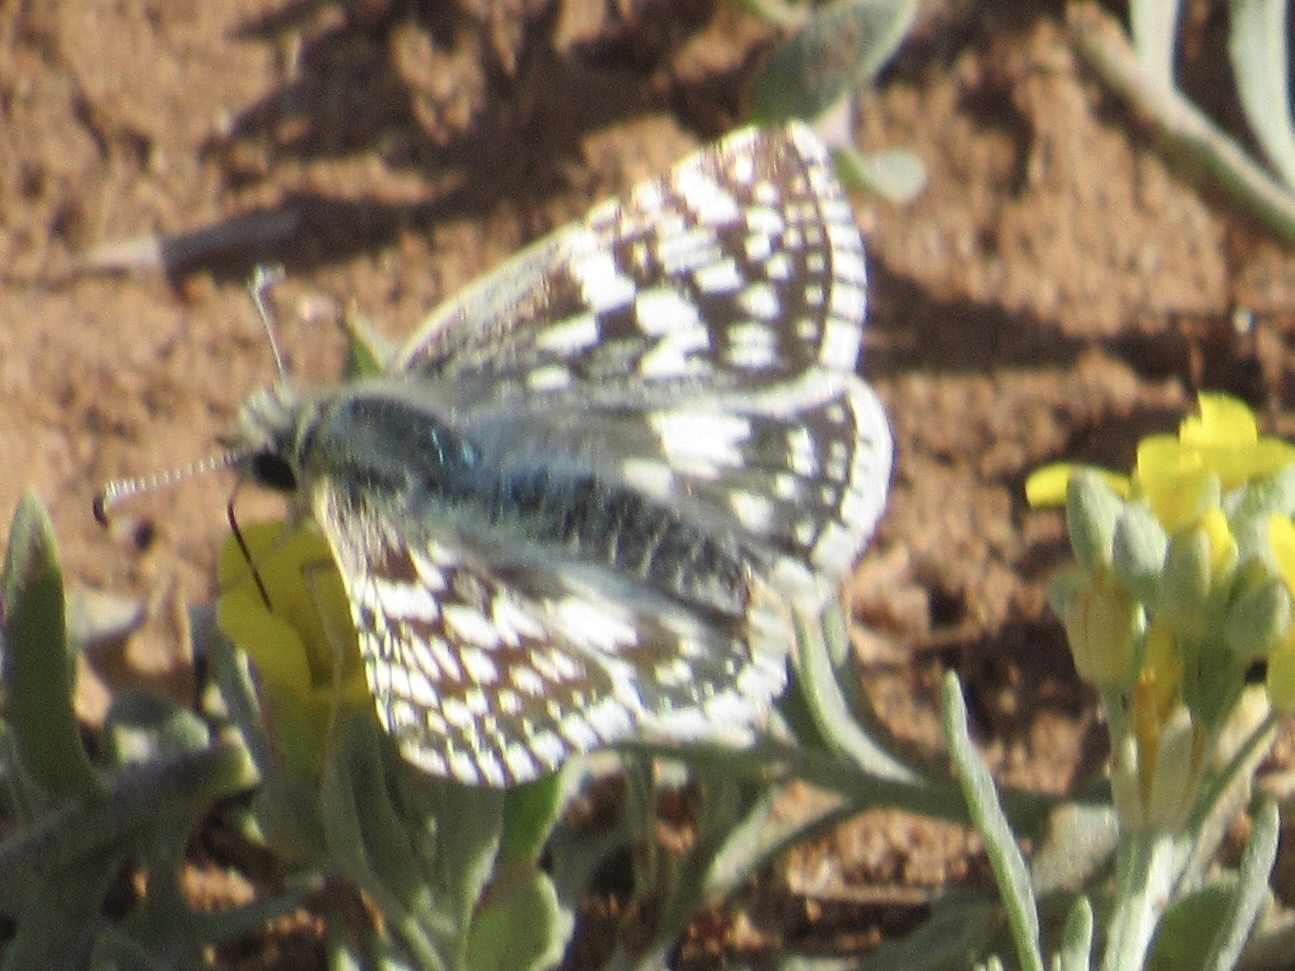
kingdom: Animalia
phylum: Arthropoda
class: Insecta
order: Lepidoptera
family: Hesperiidae
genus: Burnsius
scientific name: Burnsius communis
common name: Common checkered-skipper
